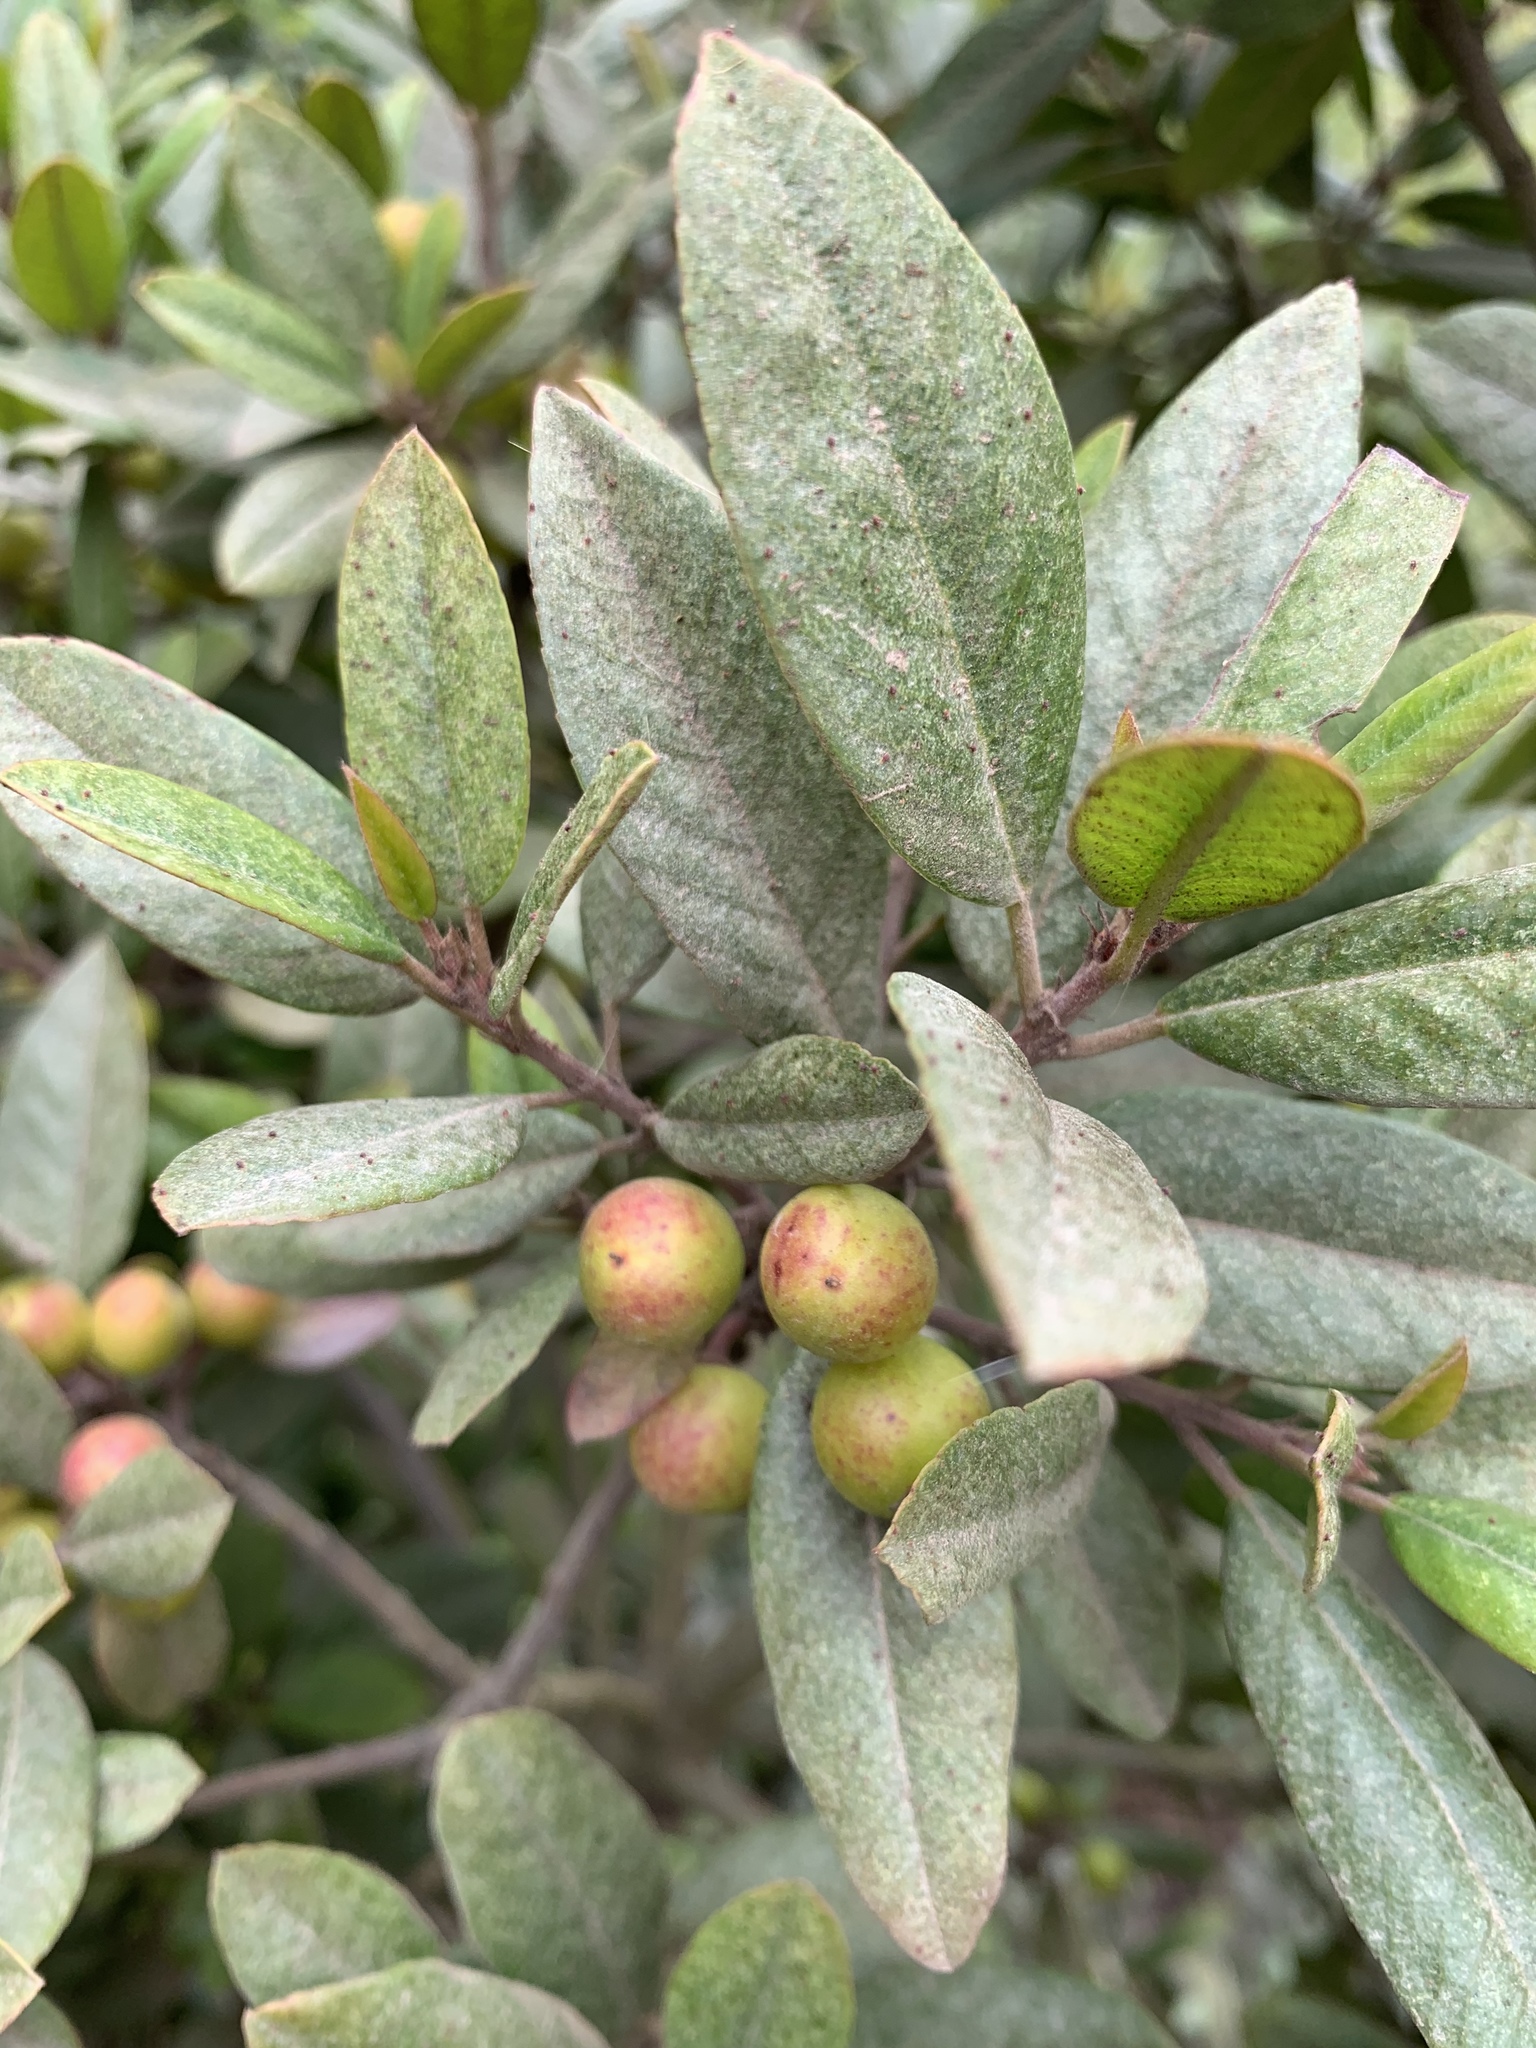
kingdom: Plantae
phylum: Tracheophyta
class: Magnoliopsida
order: Rosales
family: Rhamnaceae
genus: Frangula
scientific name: Frangula californica
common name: California buckthorn
